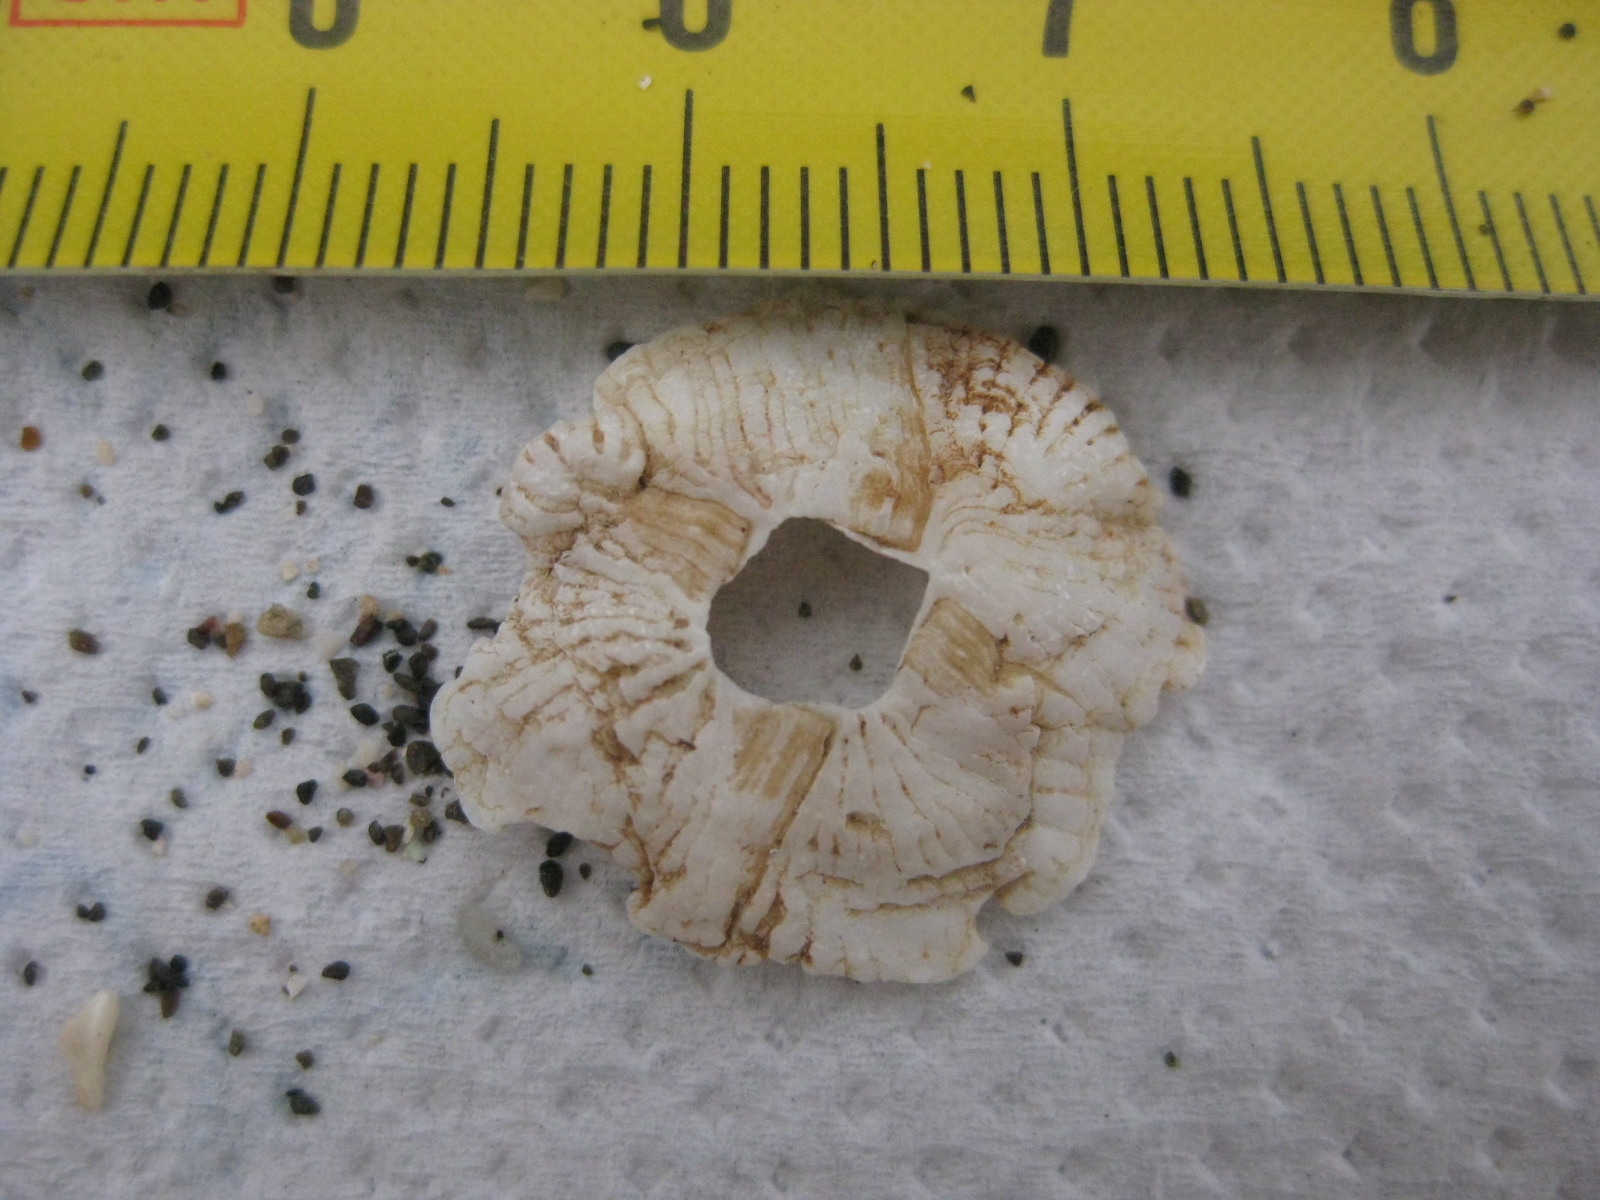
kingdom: Animalia
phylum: Arthropoda
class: Maxillopoda
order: Sessilia
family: Tetraclitidae
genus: Tetraclitella
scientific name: Tetraclitella depressa
